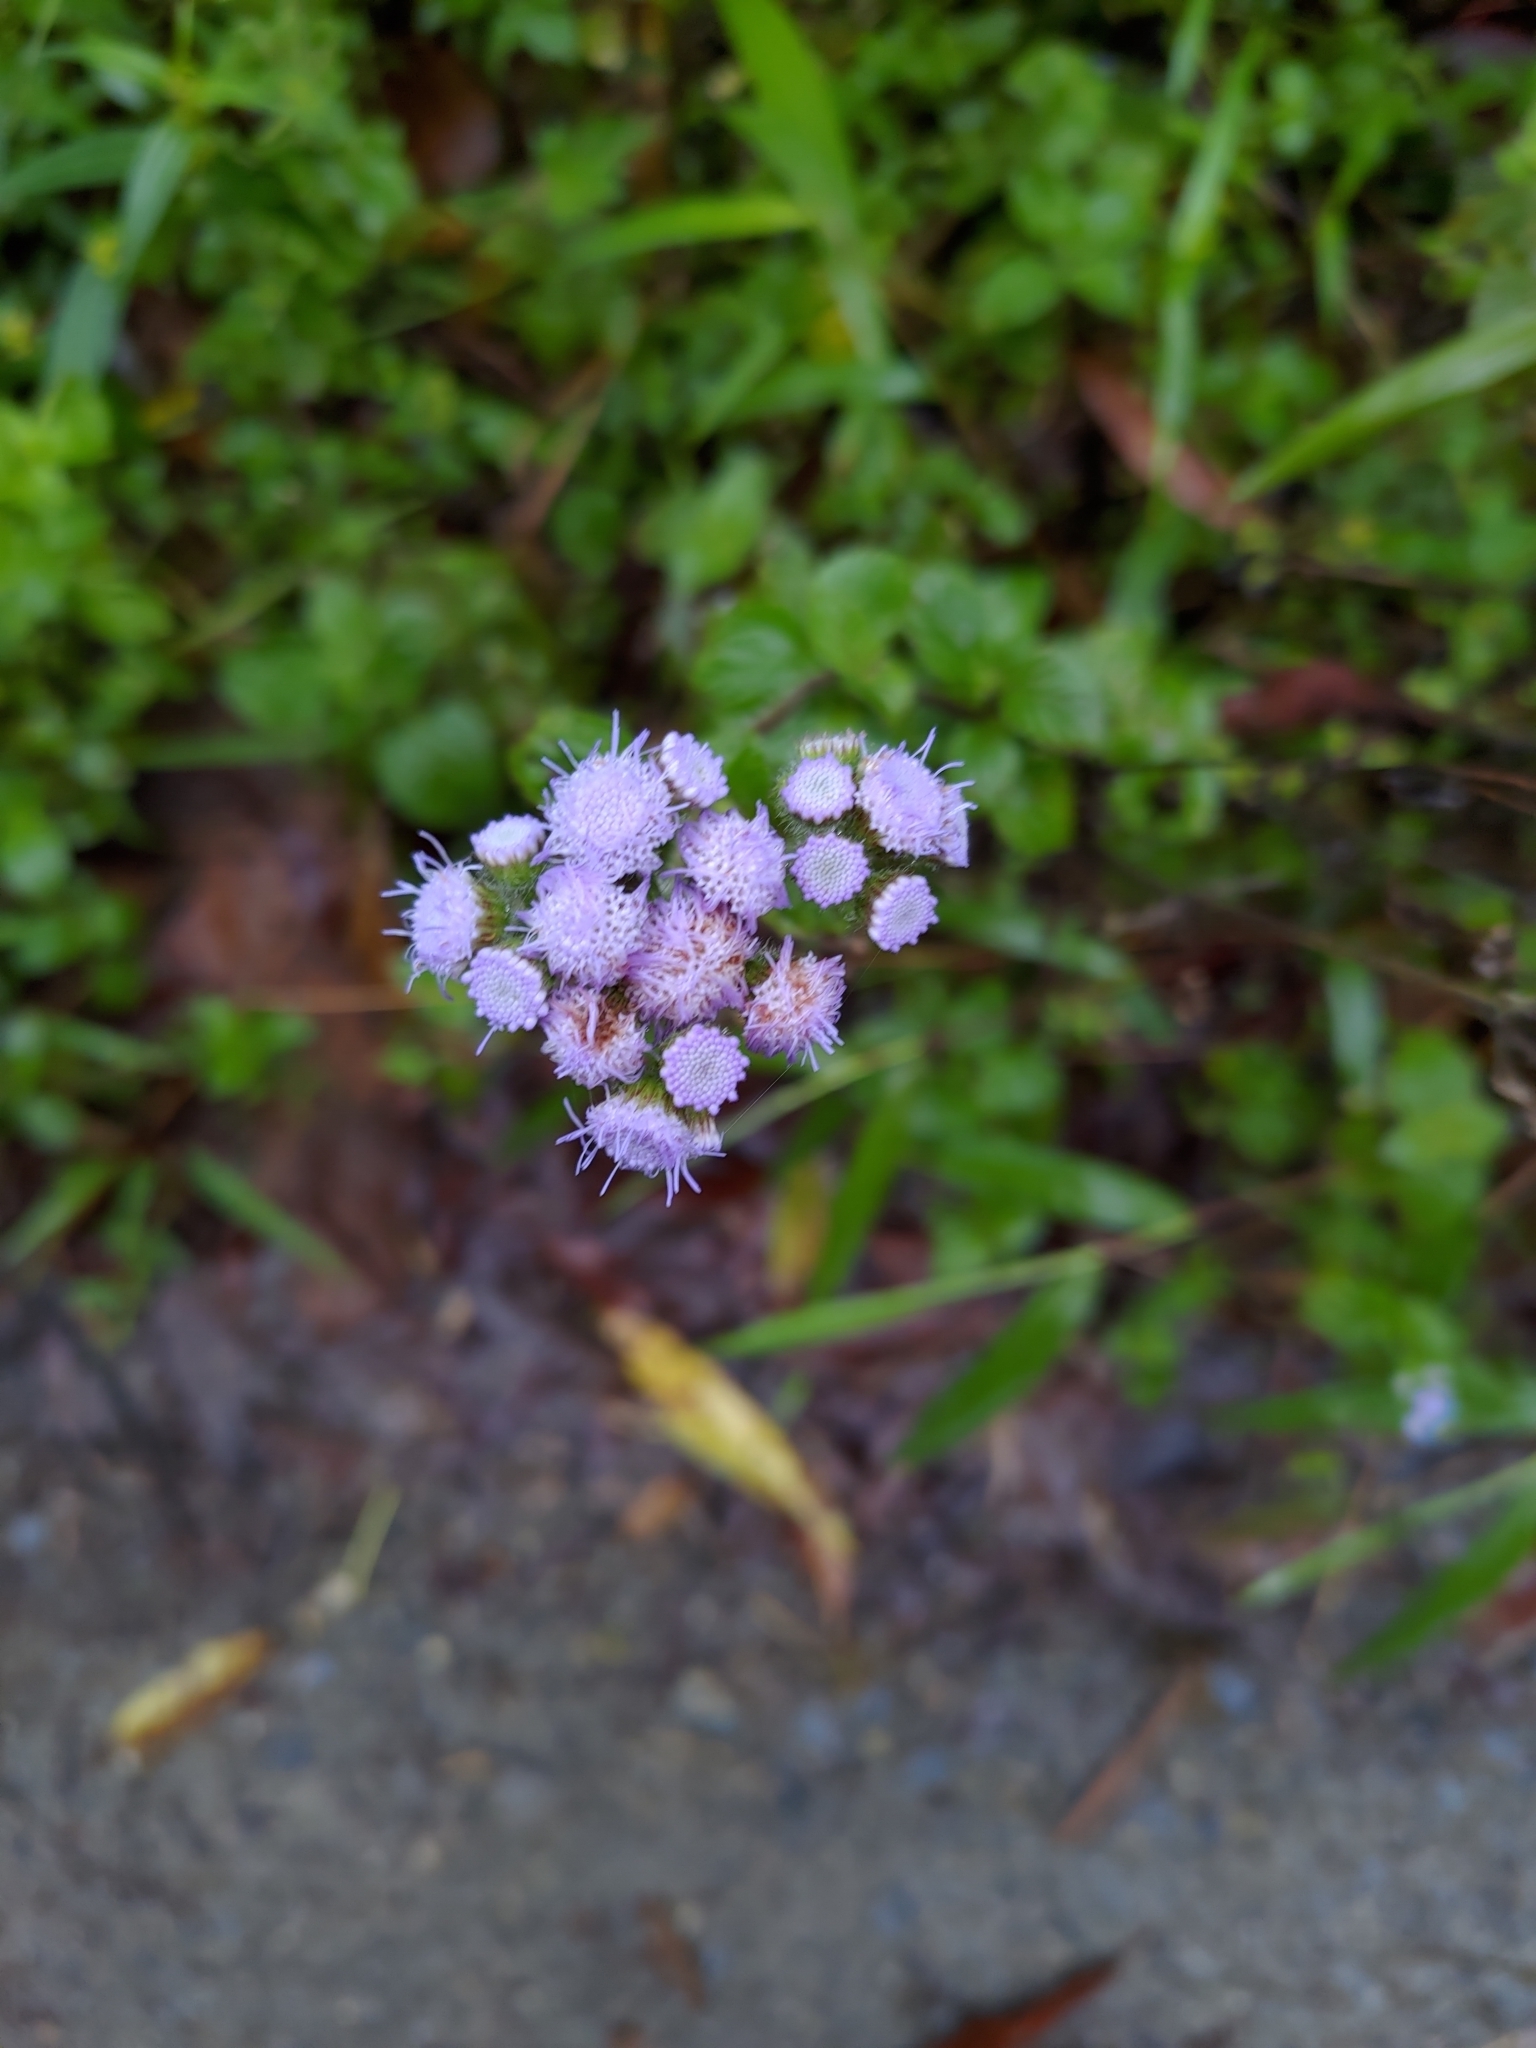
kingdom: Plantae
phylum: Tracheophyta
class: Magnoliopsida
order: Asterales
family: Asteraceae
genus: Ageratum
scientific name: Ageratum houstonianum
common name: Bluemink
